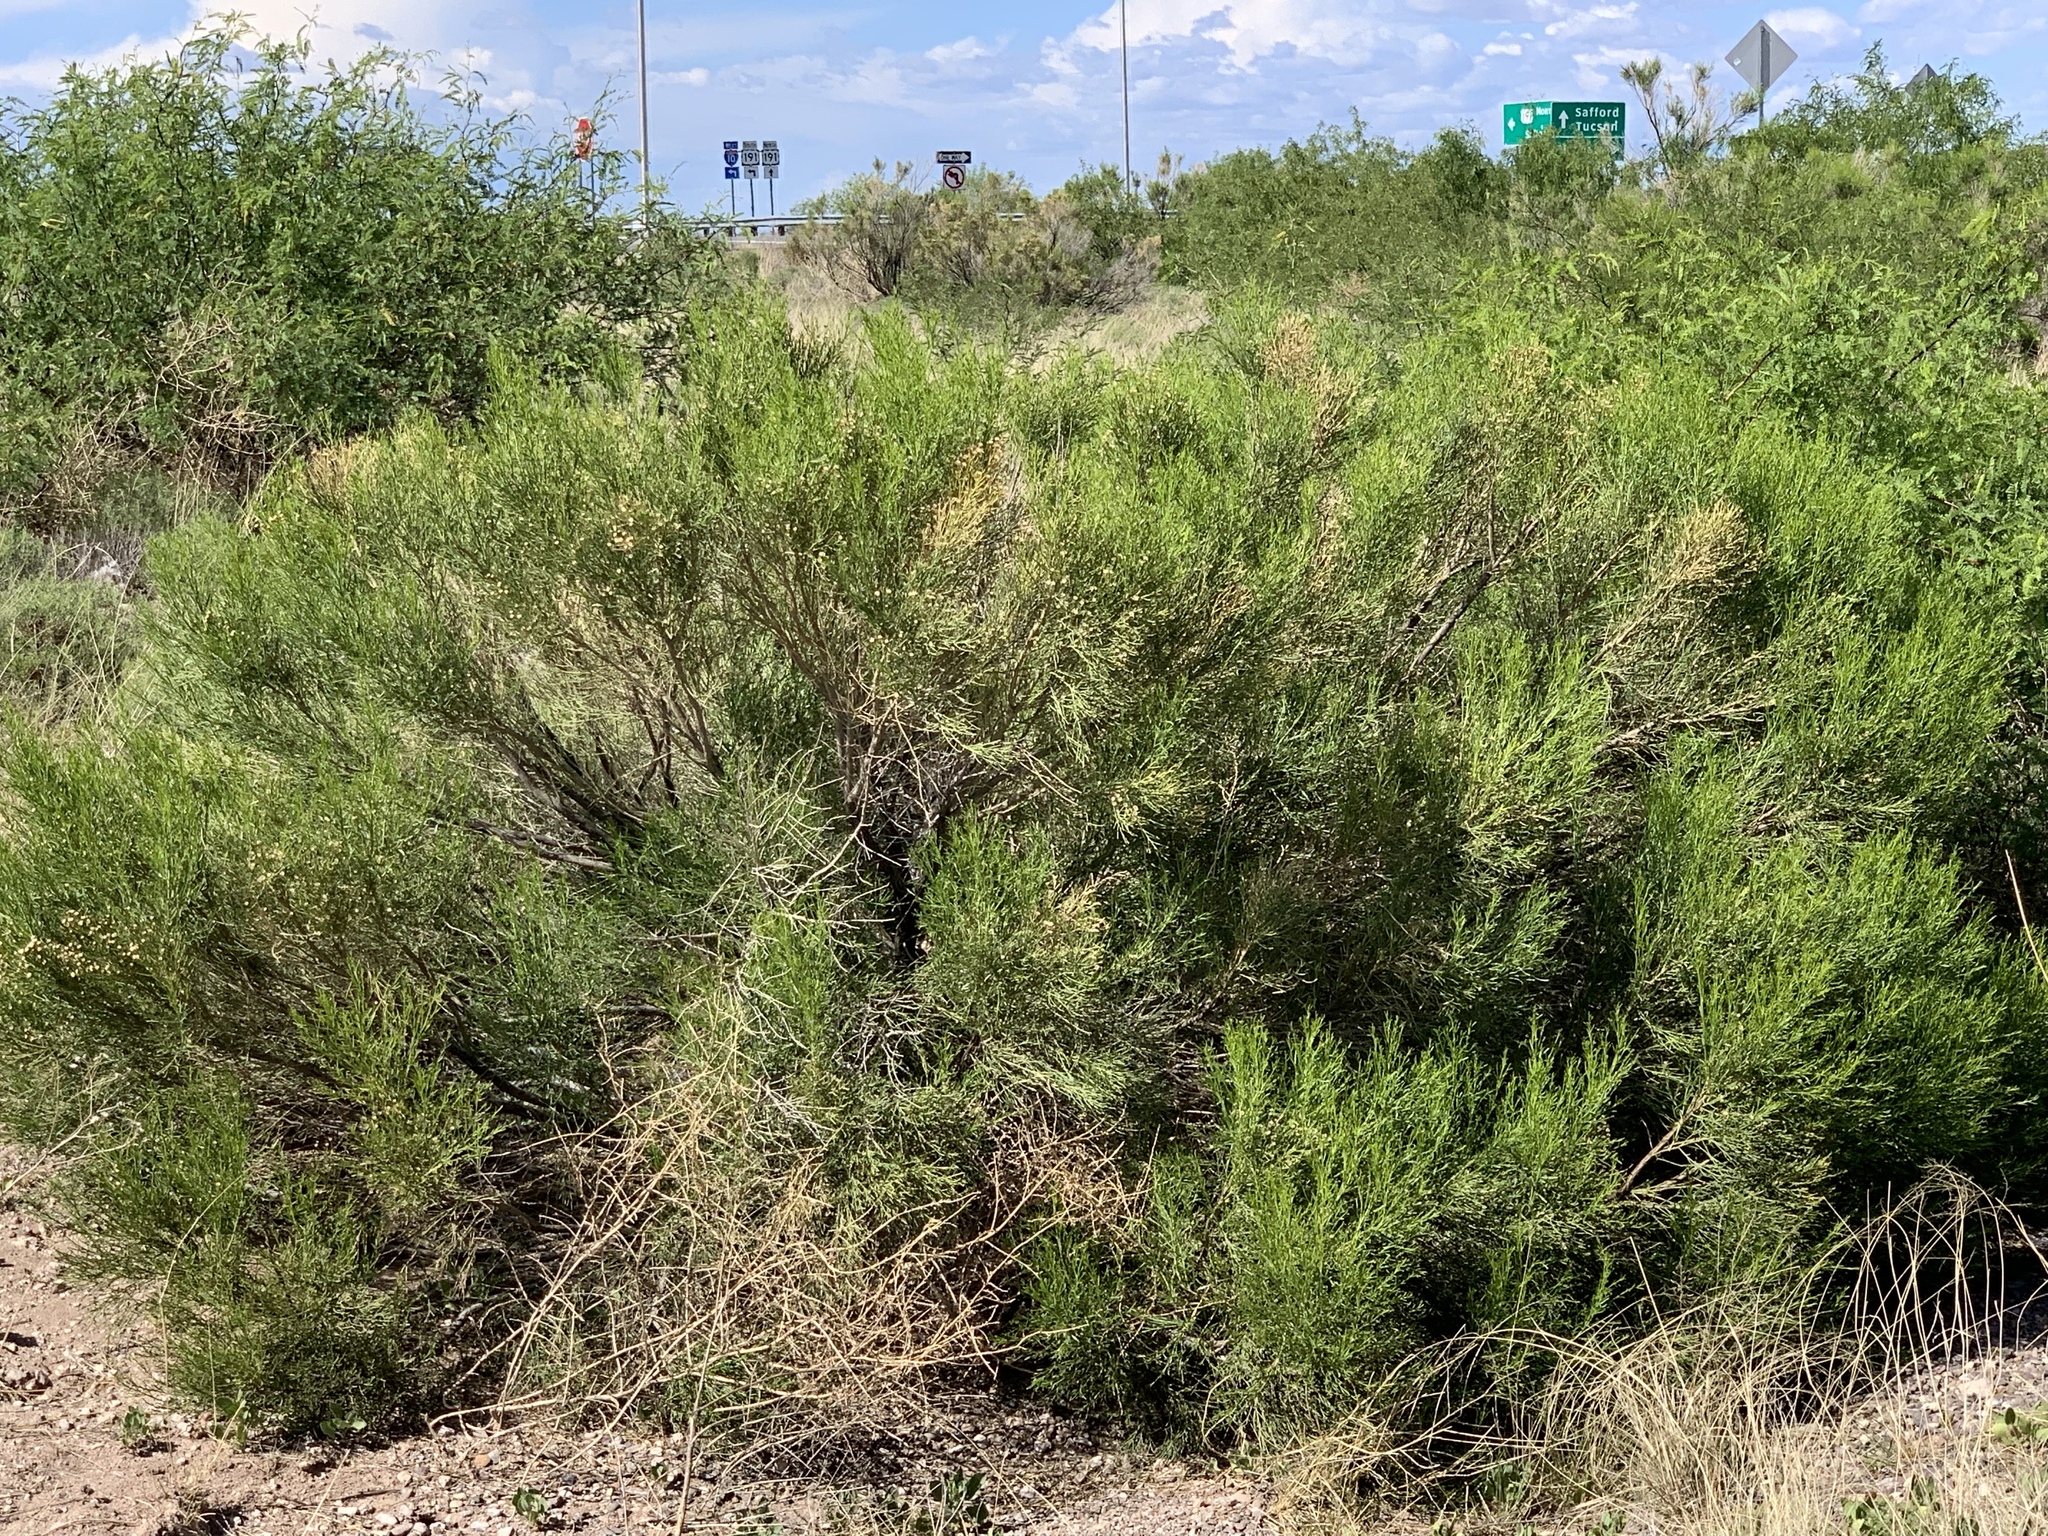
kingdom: Plantae
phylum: Tracheophyta
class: Magnoliopsida
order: Asterales
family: Asteraceae
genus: Baccharis
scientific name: Baccharis sarothroides
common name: Desert-broom
